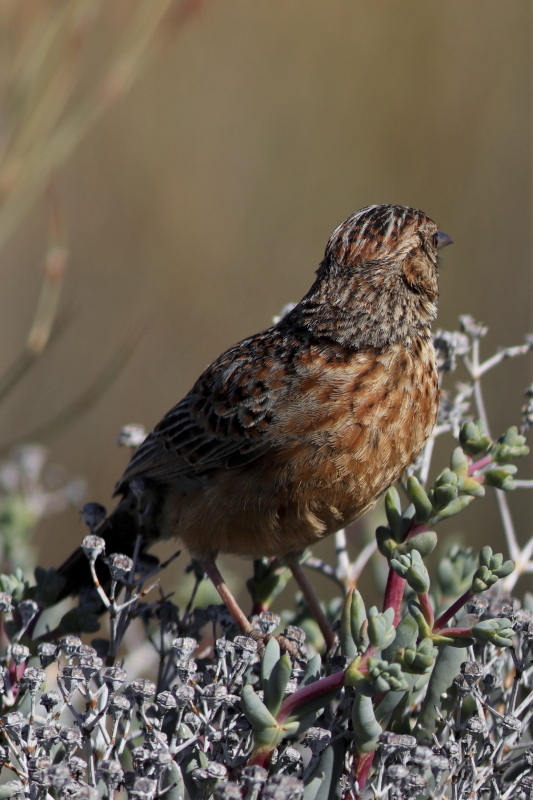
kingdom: Animalia
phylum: Chordata
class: Aves
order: Passeriformes
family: Alaudidae
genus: Mirafra
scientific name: Mirafra apiata
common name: Cape clapper lark
